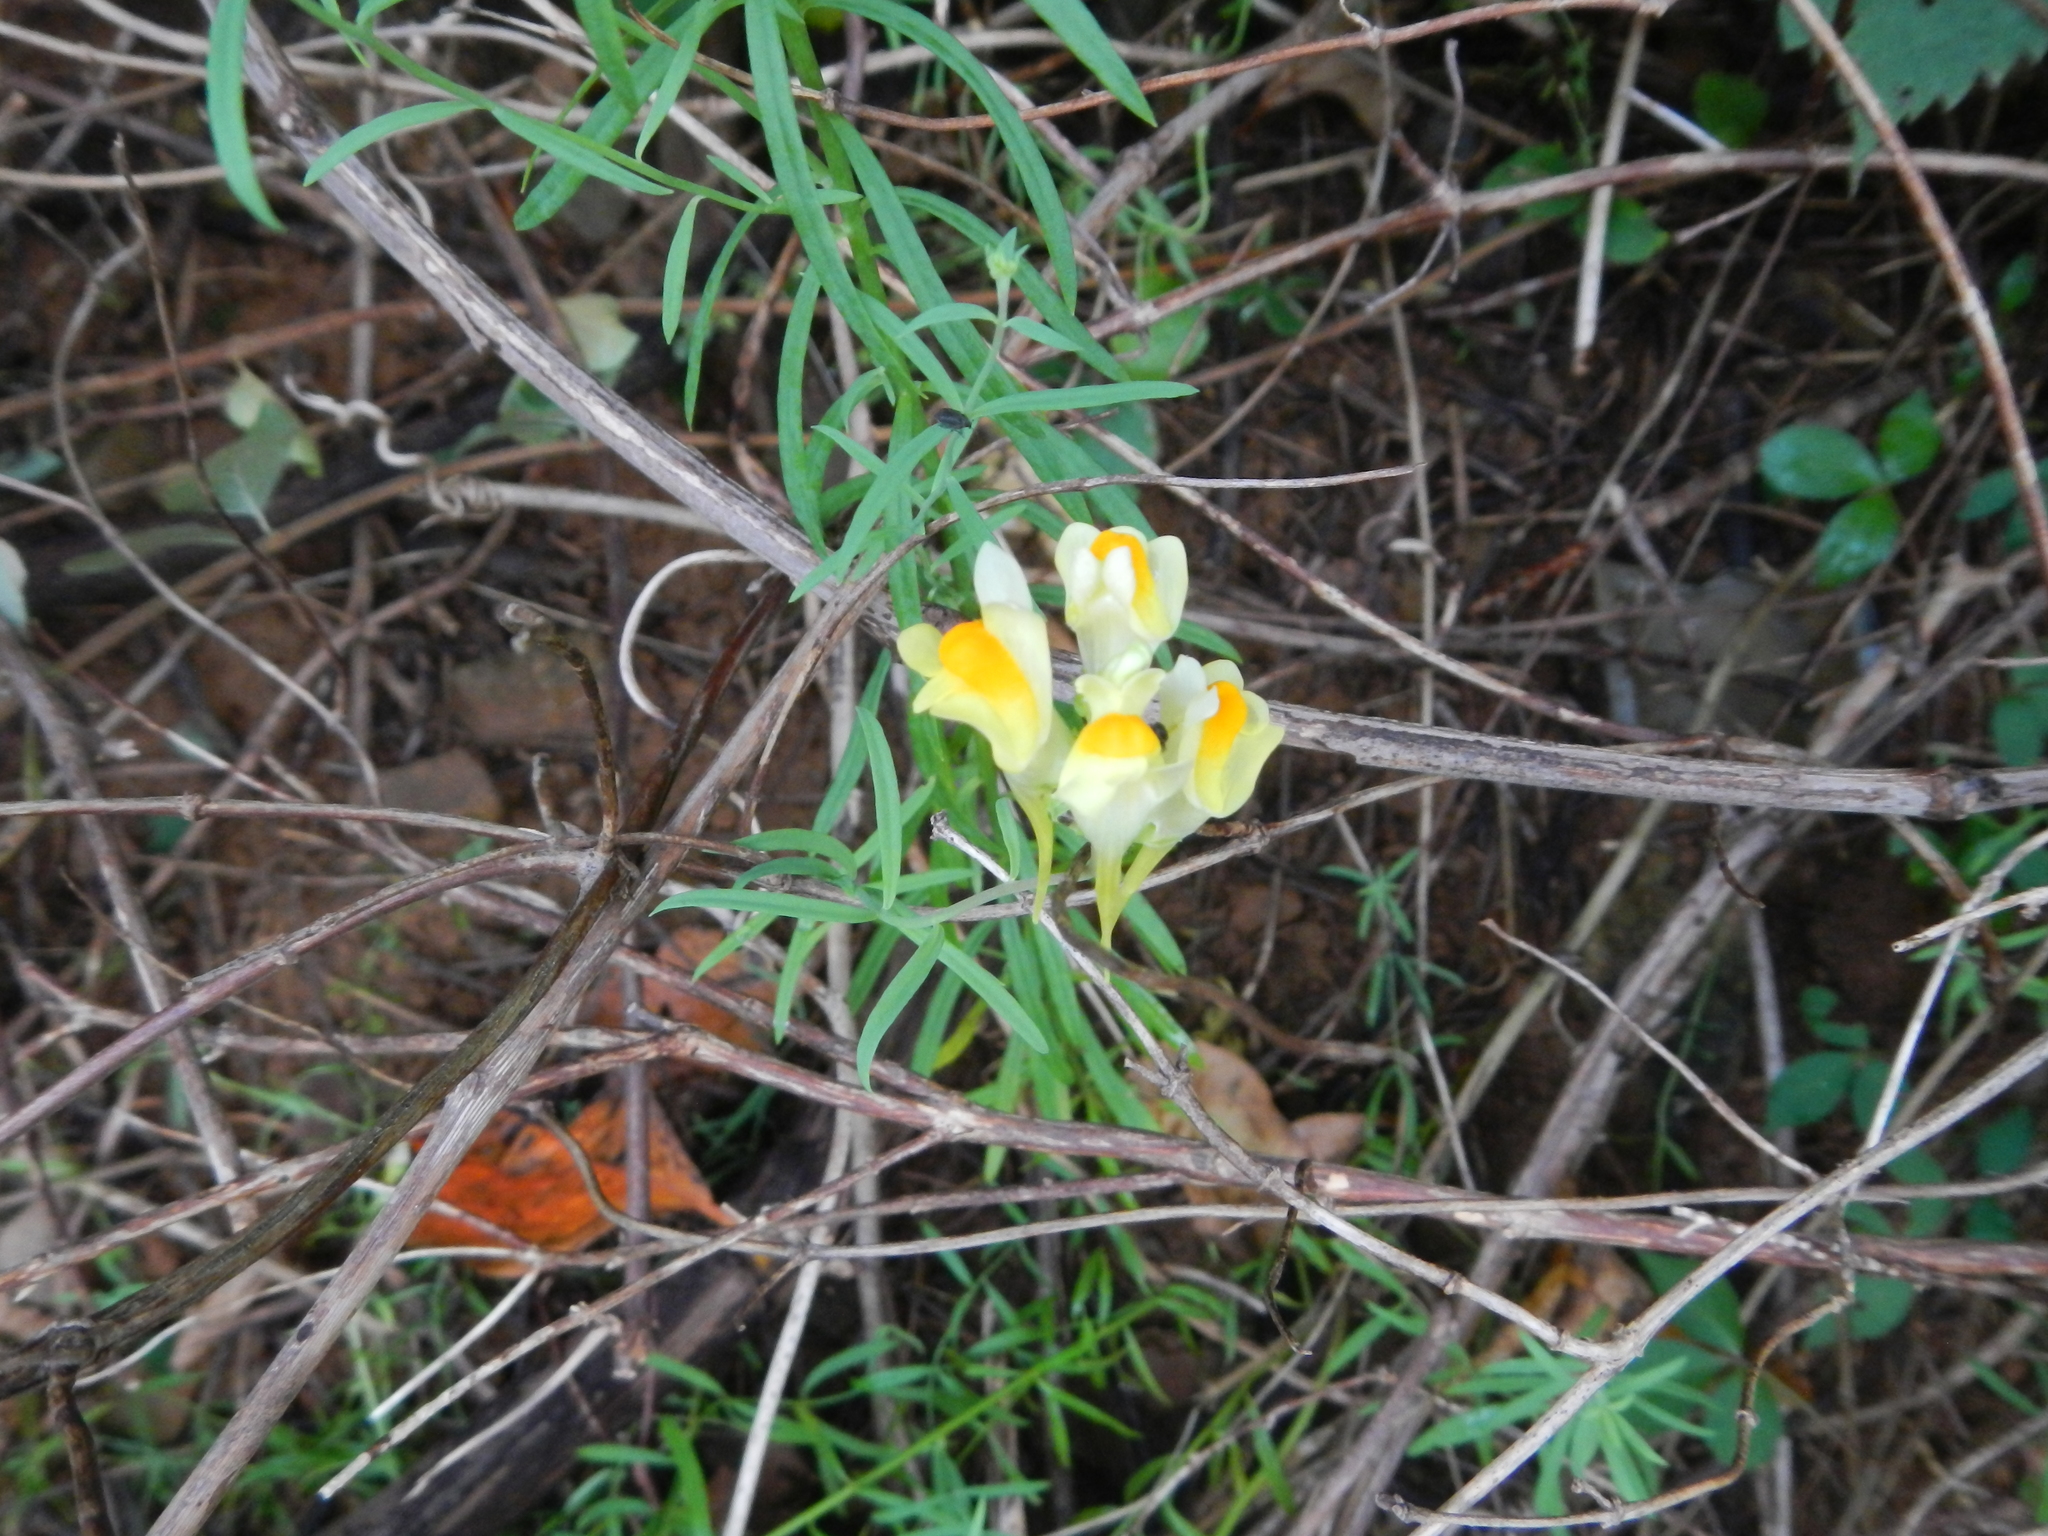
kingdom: Plantae
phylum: Tracheophyta
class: Magnoliopsida
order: Lamiales
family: Plantaginaceae
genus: Linaria
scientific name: Linaria vulgaris
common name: Butter and eggs
